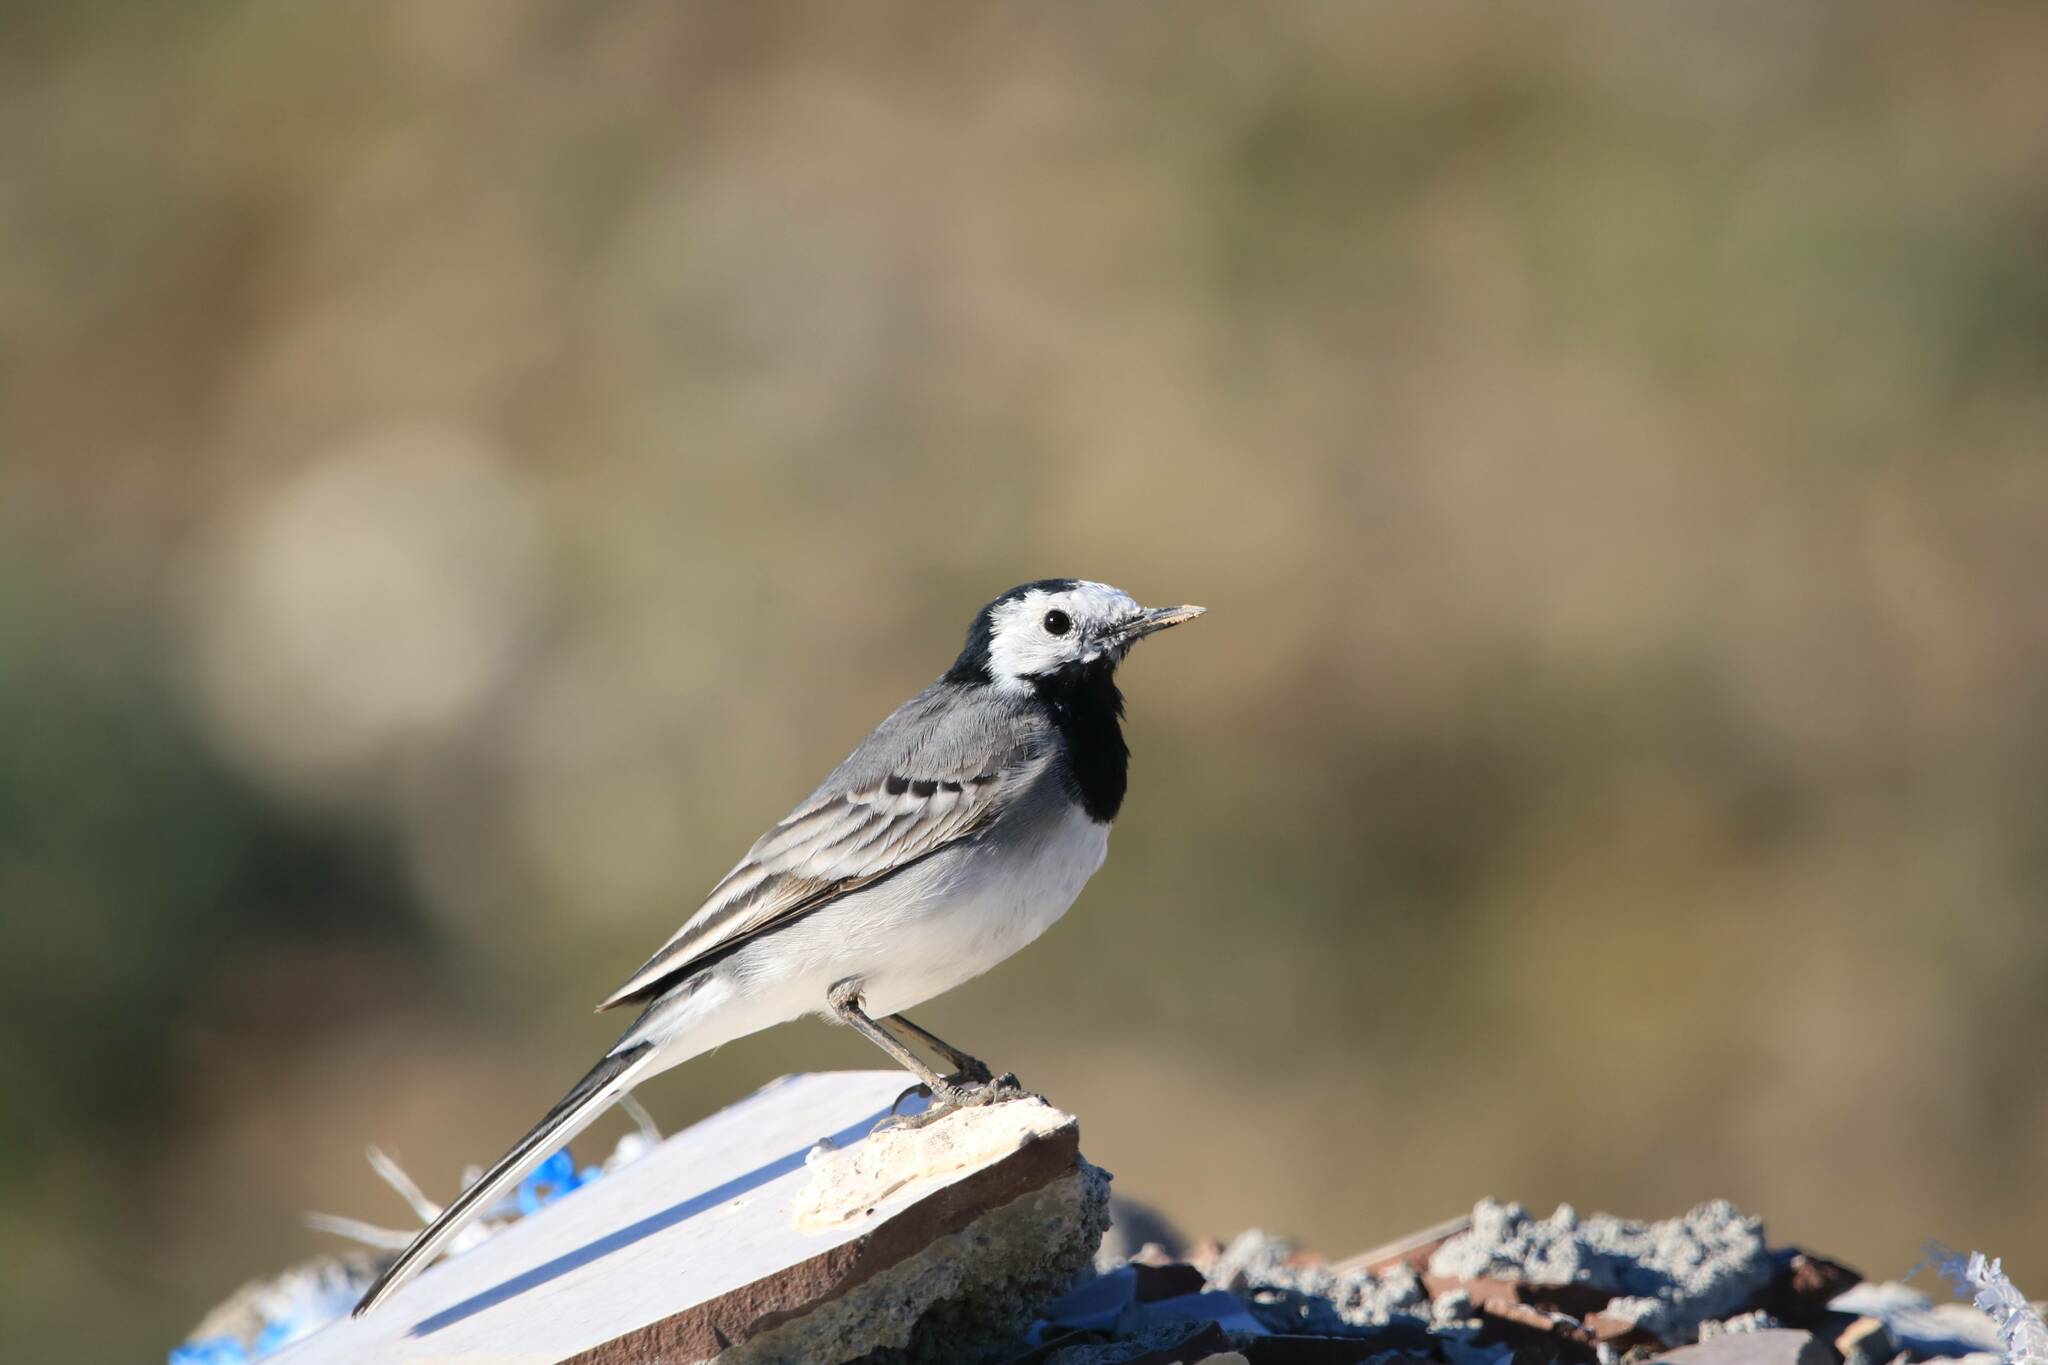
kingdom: Animalia
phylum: Chordata
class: Aves
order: Passeriformes
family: Motacillidae
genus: Motacilla
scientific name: Motacilla alba
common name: White wagtail
